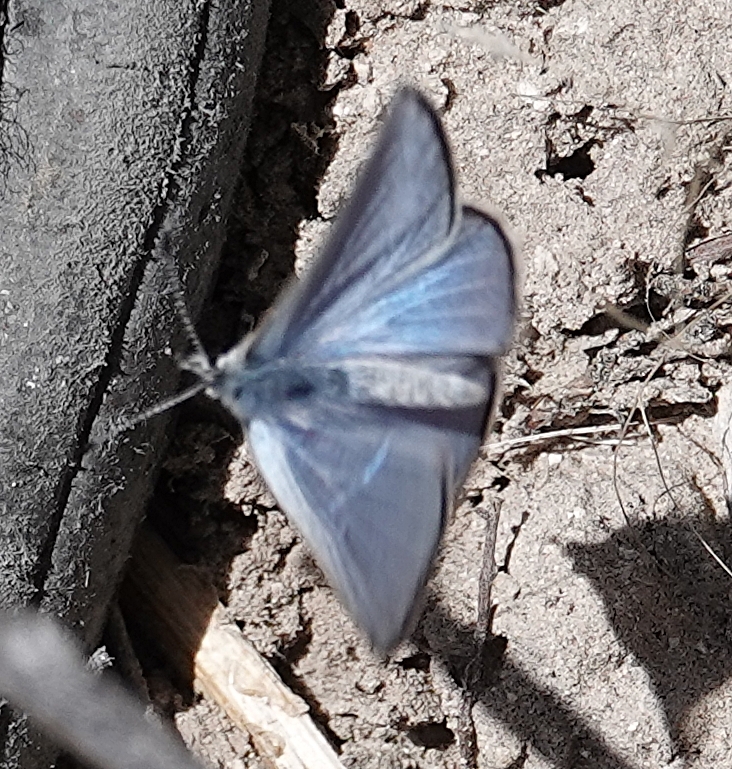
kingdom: Animalia
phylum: Arthropoda
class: Insecta
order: Lepidoptera
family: Lycaenidae
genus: Glaucopsyche
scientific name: Glaucopsyche lygdamus
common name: Silvery blue
